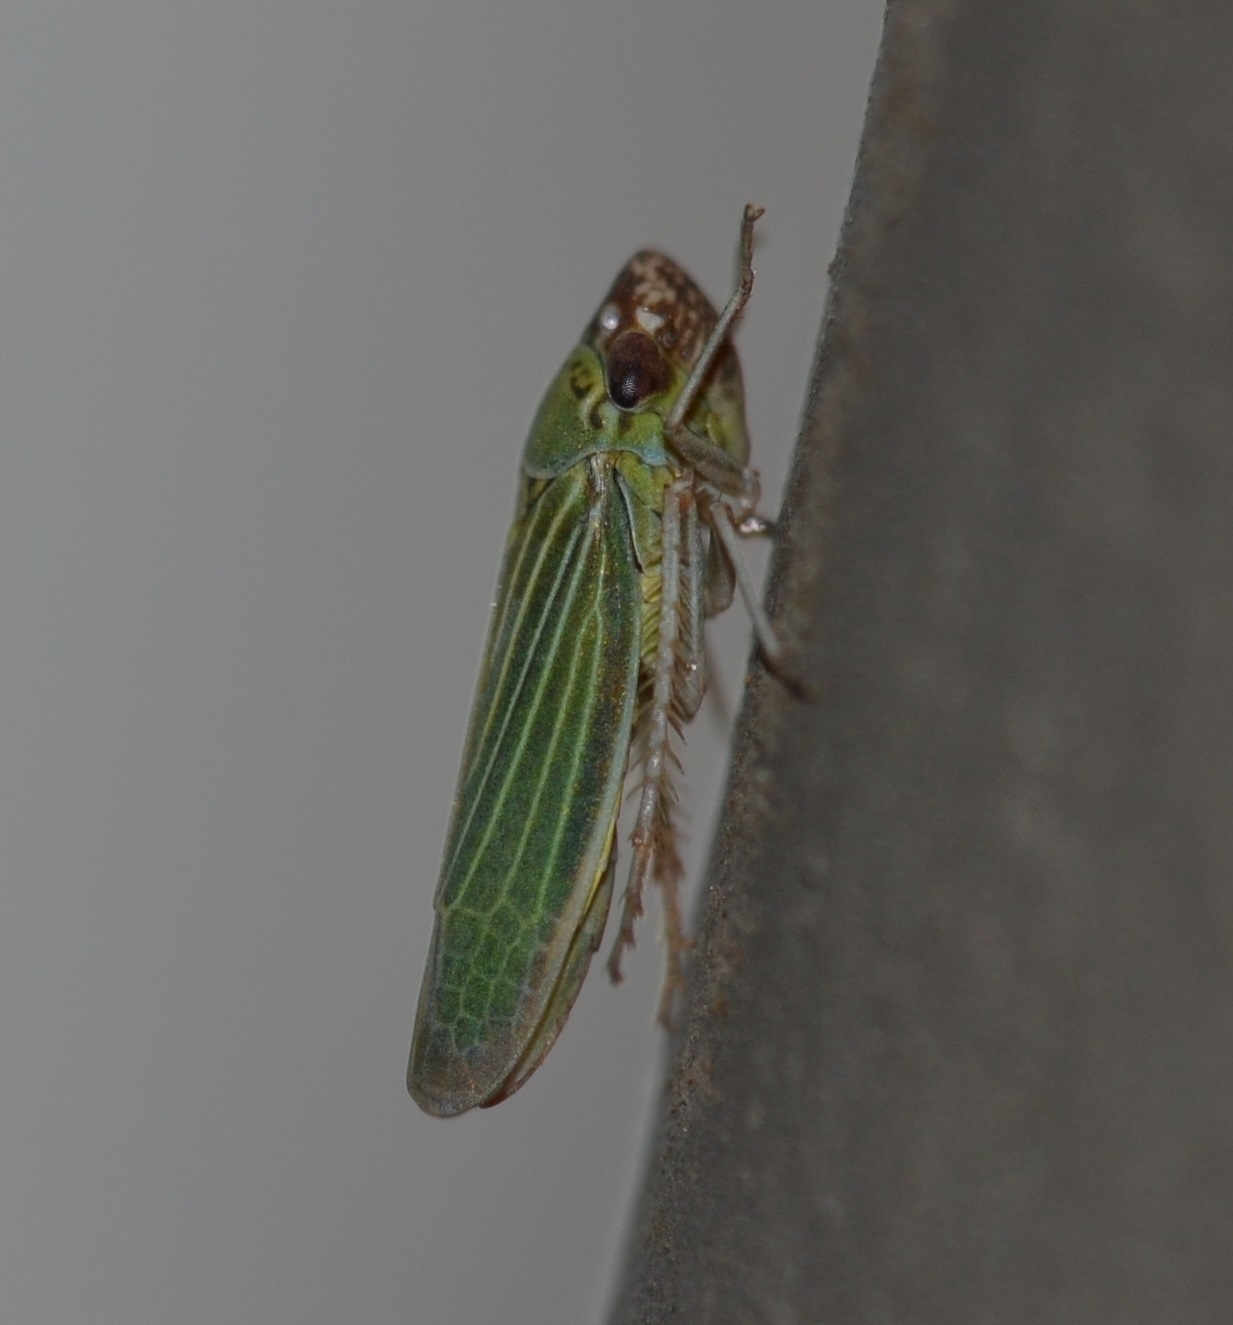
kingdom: Animalia
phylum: Arthropoda
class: Insecta
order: Hemiptera
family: Cicadellidae
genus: Xyphon
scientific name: Xyphon reticulatum
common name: Planthopper
